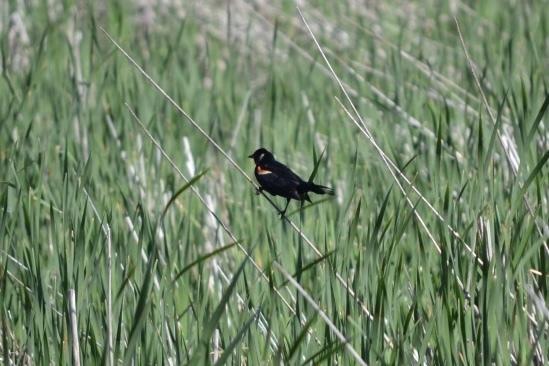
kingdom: Animalia
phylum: Chordata
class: Aves
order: Passeriformes
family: Icteridae
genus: Agelaius
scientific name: Agelaius phoeniceus
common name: Red-winged blackbird
